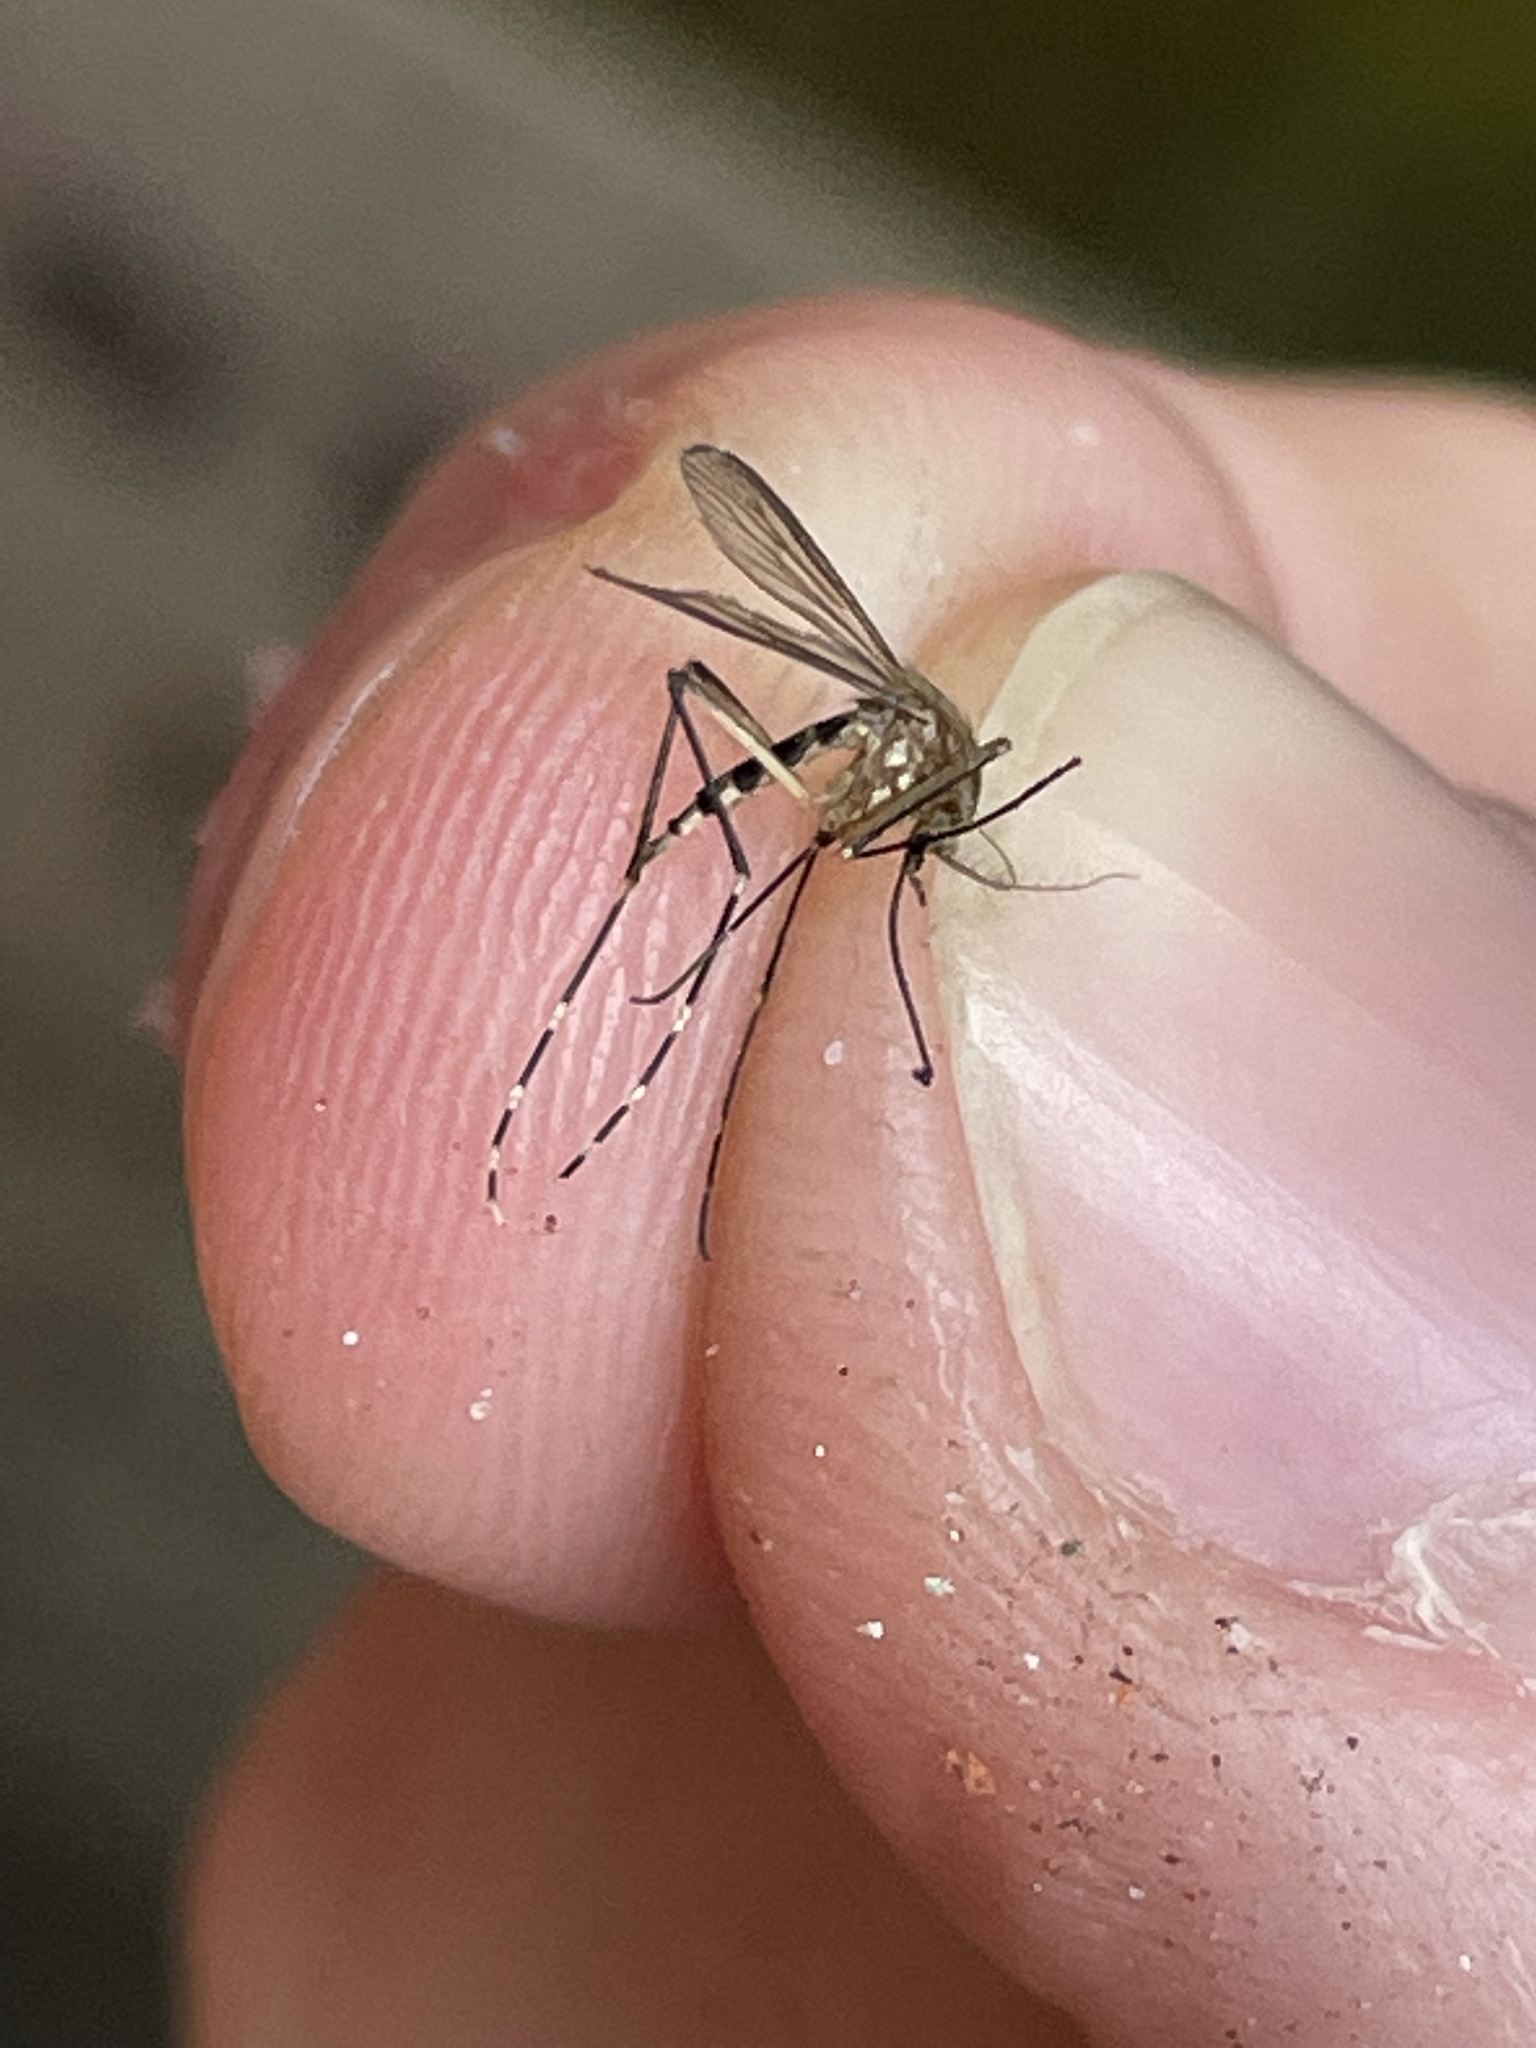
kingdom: Animalia
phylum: Arthropoda
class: Insecta
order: Diptera
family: Culicidae
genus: Aedes
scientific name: Aedes canadensis
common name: Woodland pool mosquito
